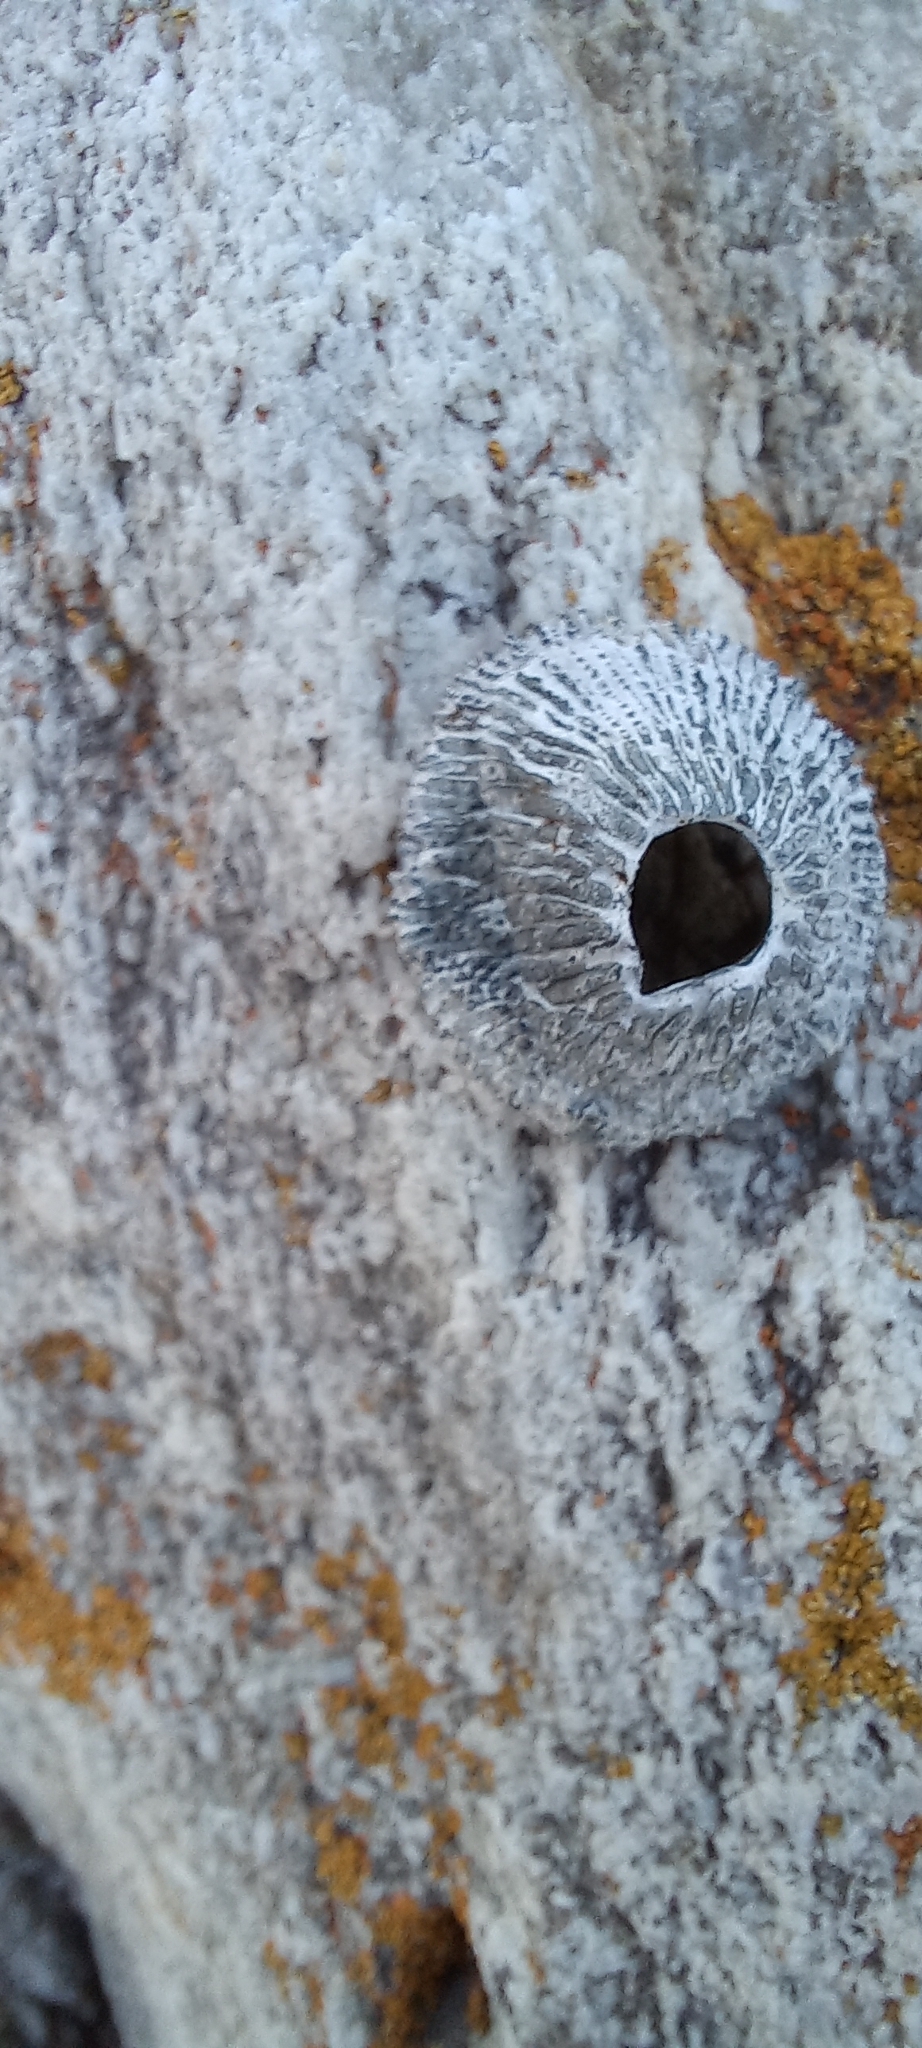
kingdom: Animalia
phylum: Arthropoda
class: Maxillopoda
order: Sessilia
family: Tetraclitidae
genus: Tetraclita
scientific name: Tetraclita serrata
